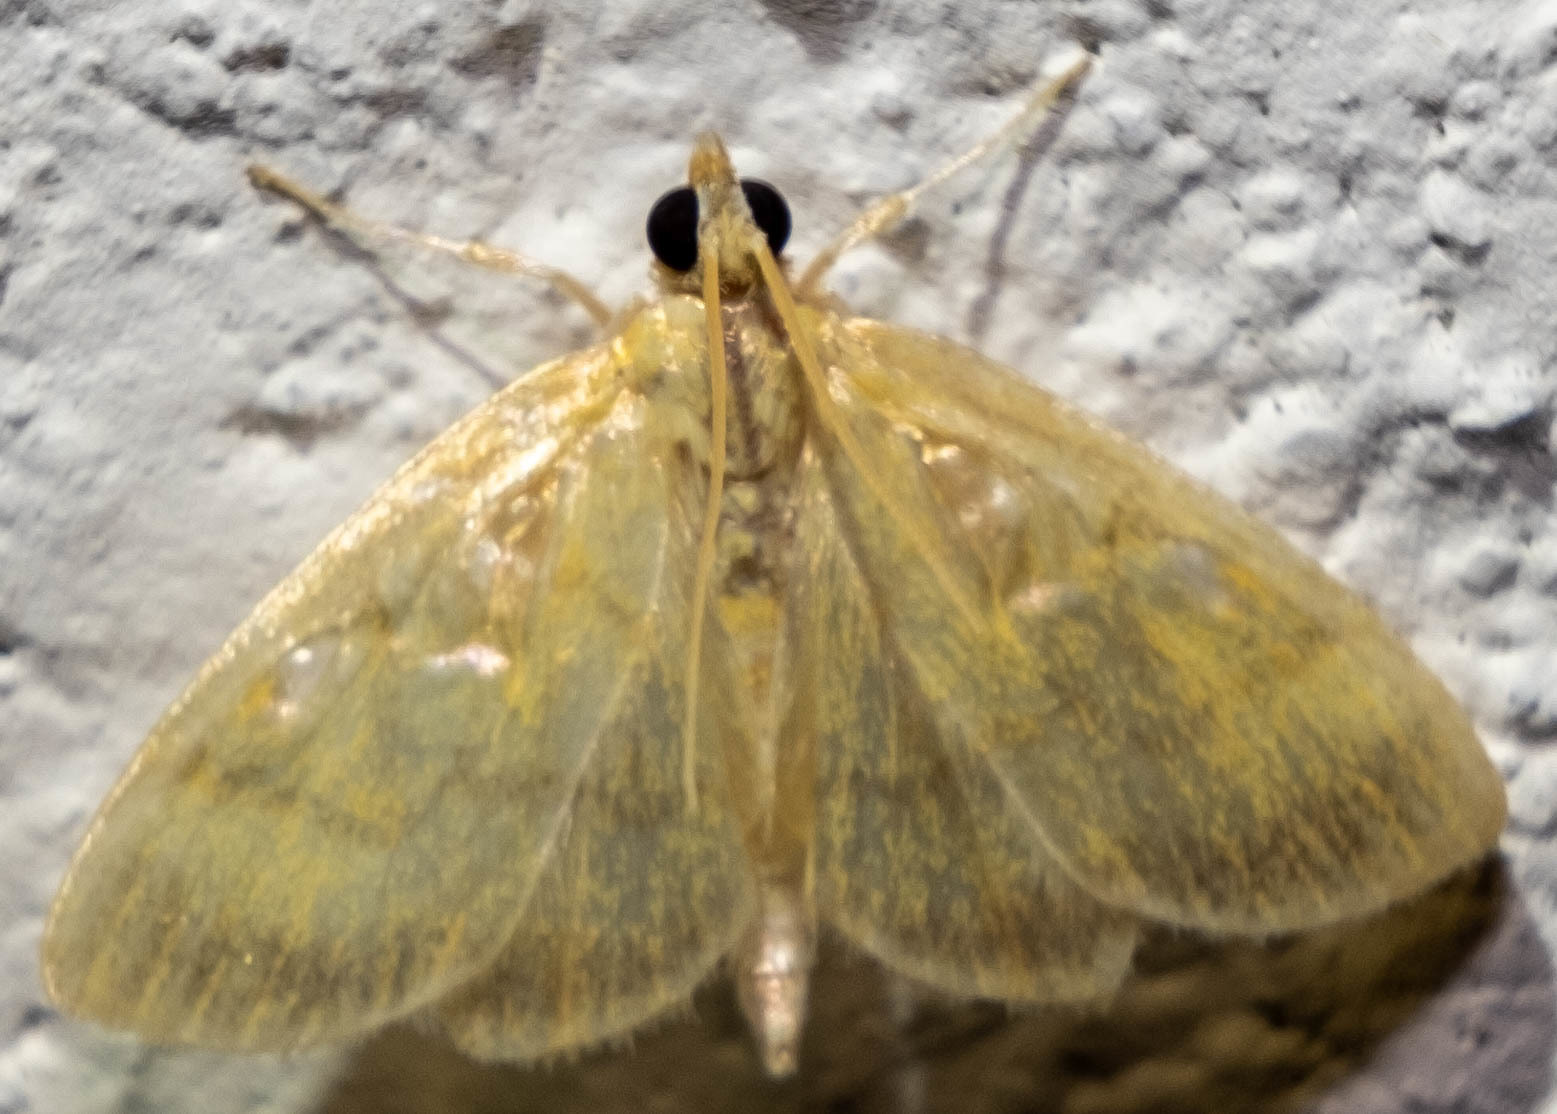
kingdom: Animalia
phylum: Arthropoda
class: Insecta
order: Lepidoptera
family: Crambidae
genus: Crocidophora
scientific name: Crocidophora tuberculalis
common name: Pale-winged crocidiphora moth
